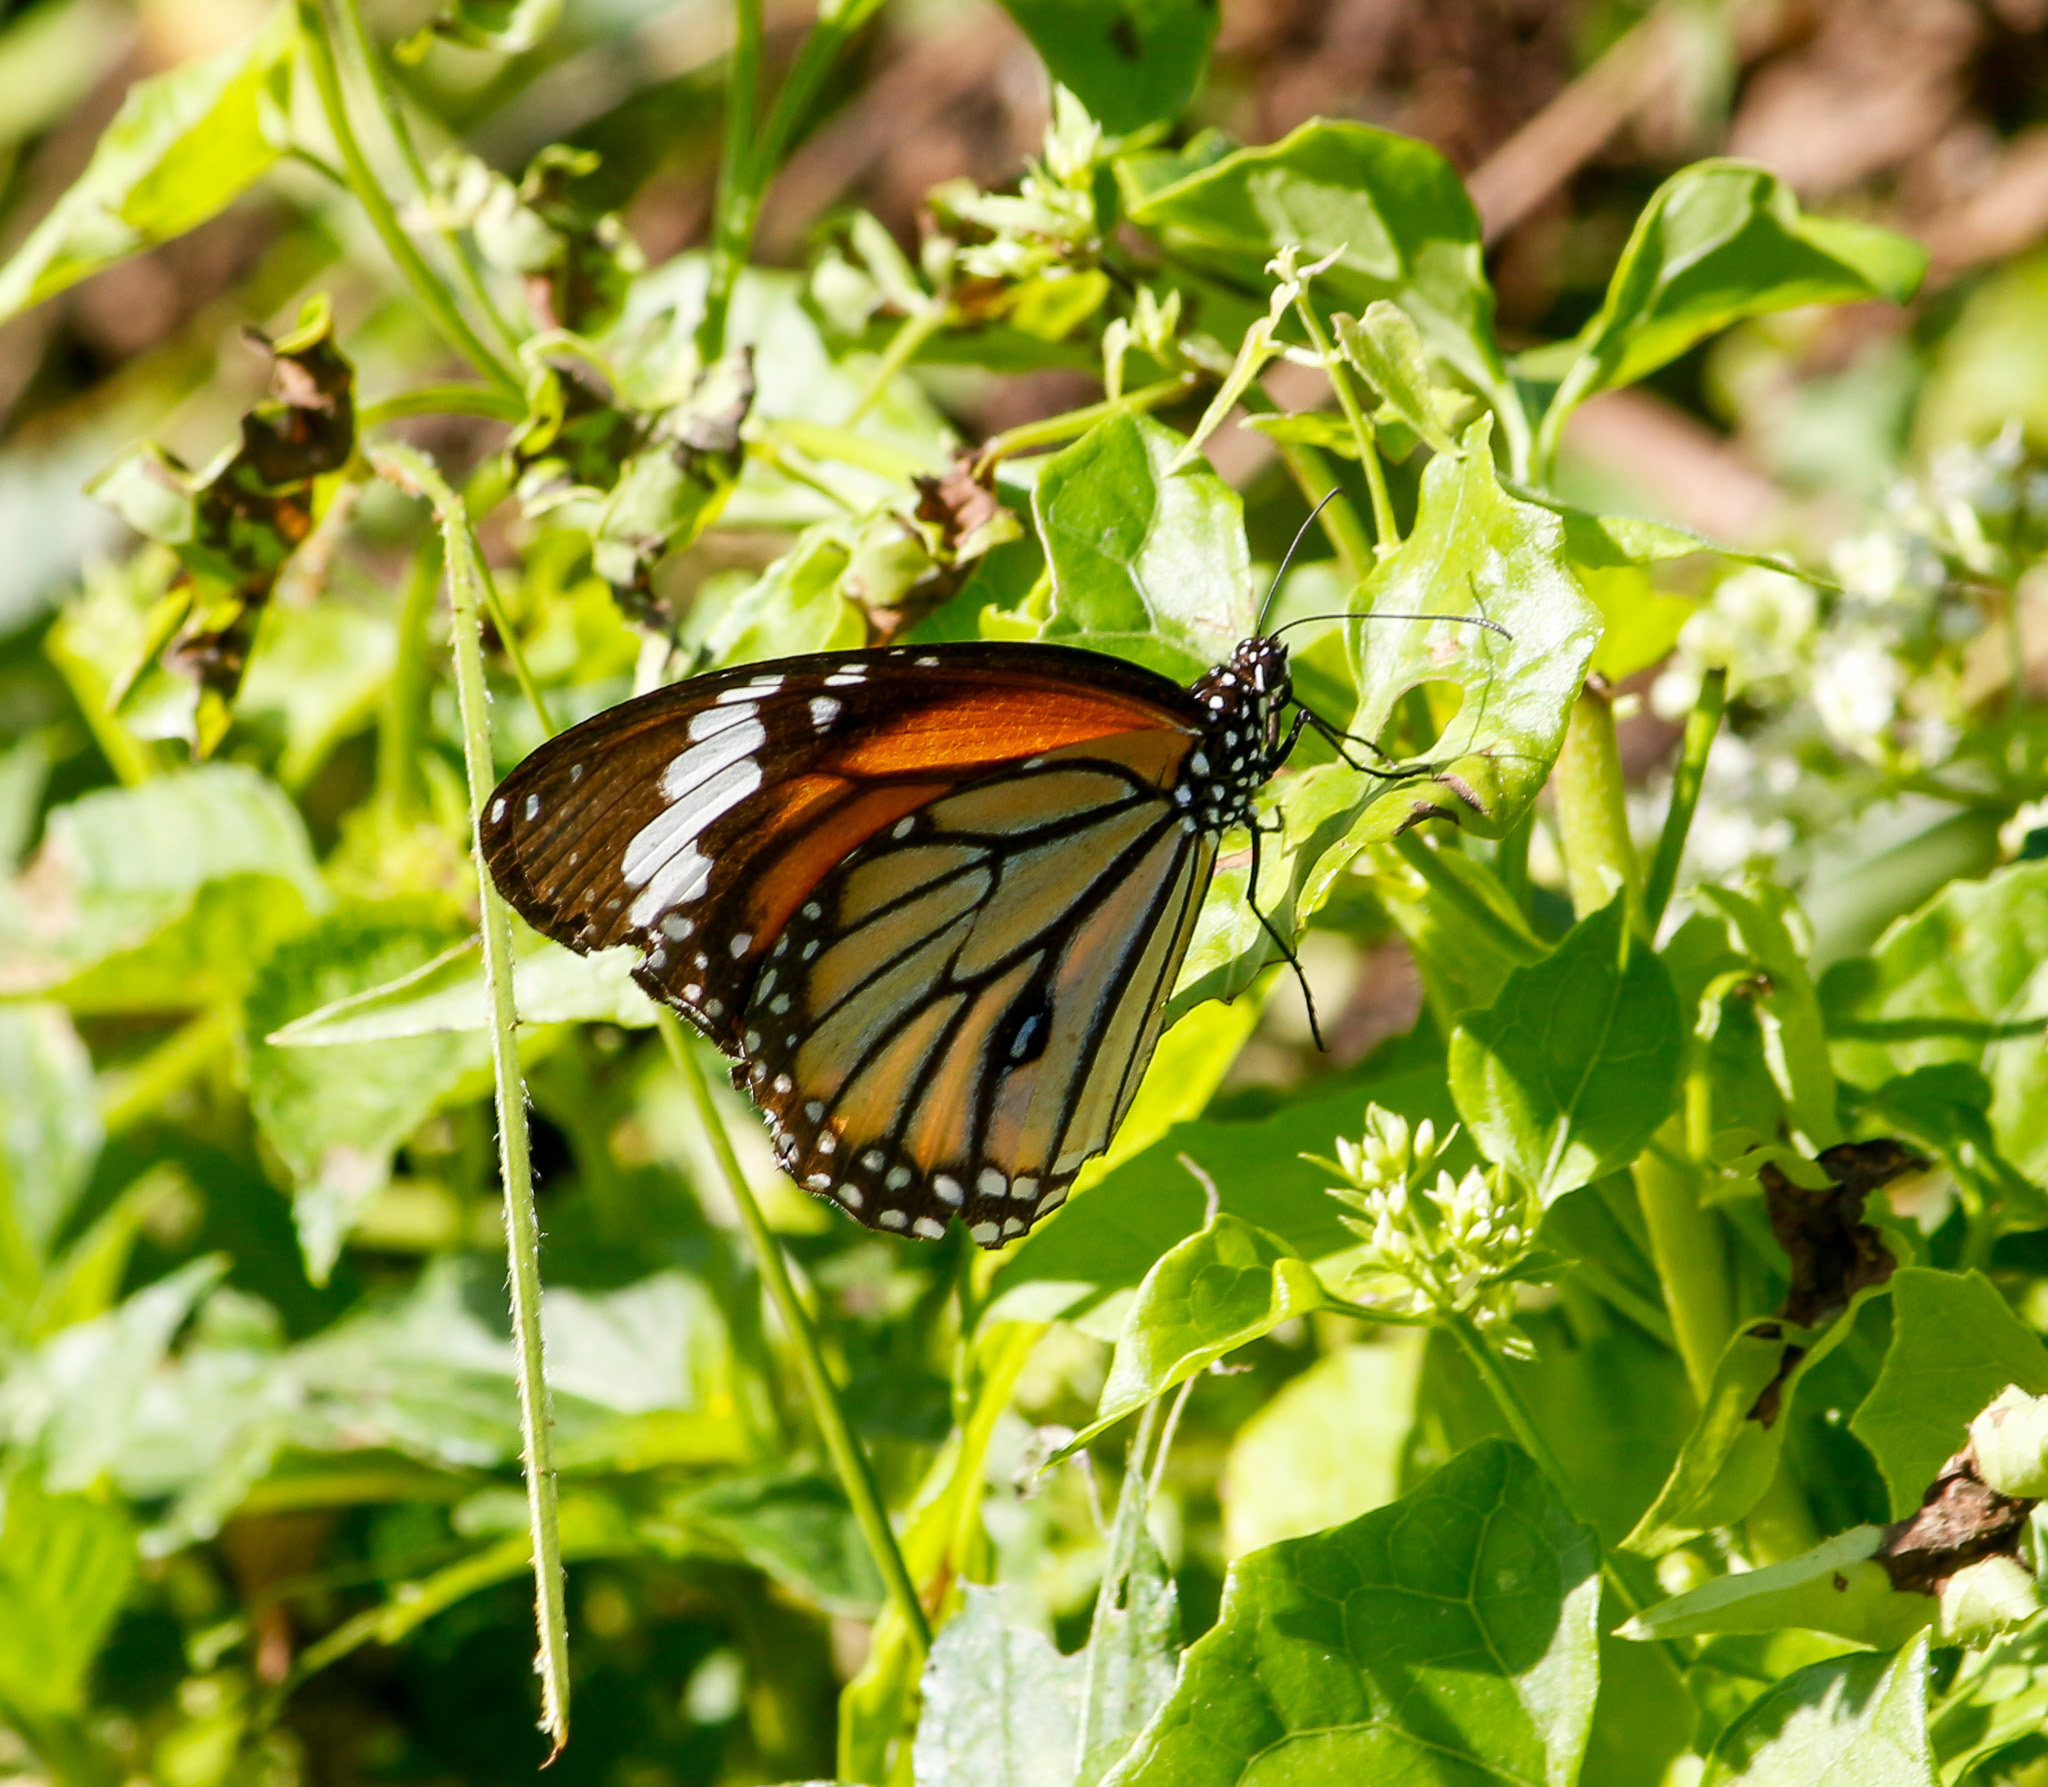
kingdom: Animalia
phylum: Arthropoda
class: Insecta
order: Lepidoptera
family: Nymphalidae
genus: Danaus
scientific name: Danaus genutia
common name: Common tiger butterfly
